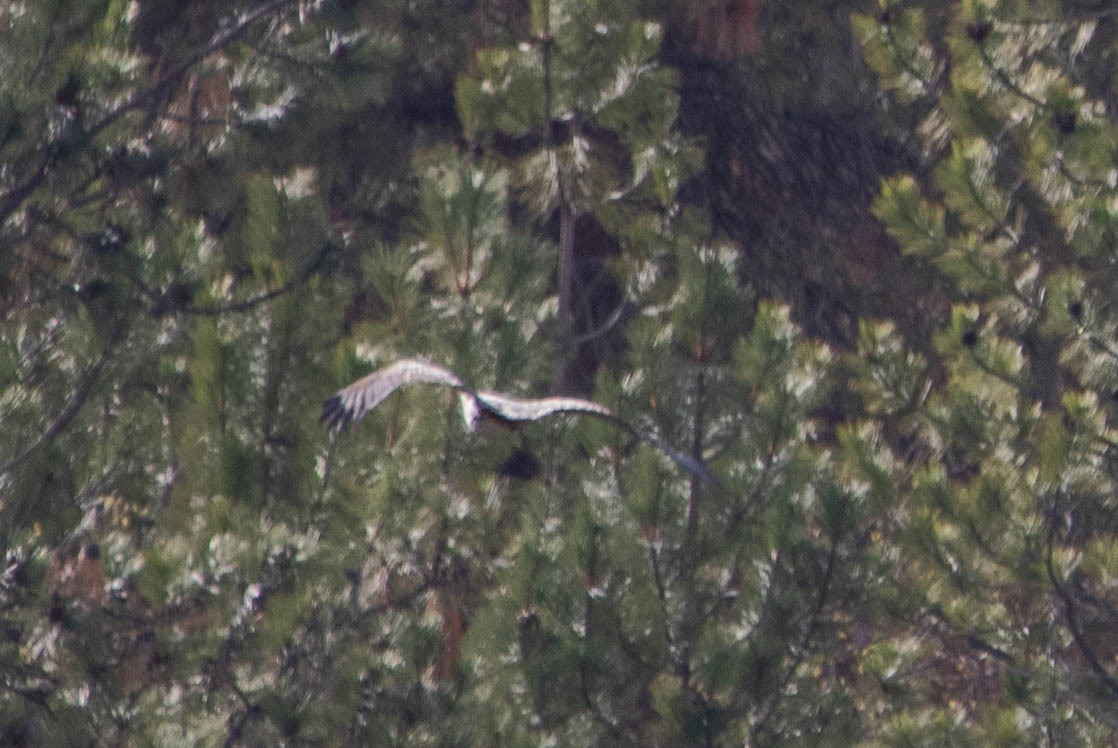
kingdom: Animalia
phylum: Chordata
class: Aves
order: Accipitriformes
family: Accipitridae
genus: Haliaeetus
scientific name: Haliaeetus leucocephalus
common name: Bald eagle
